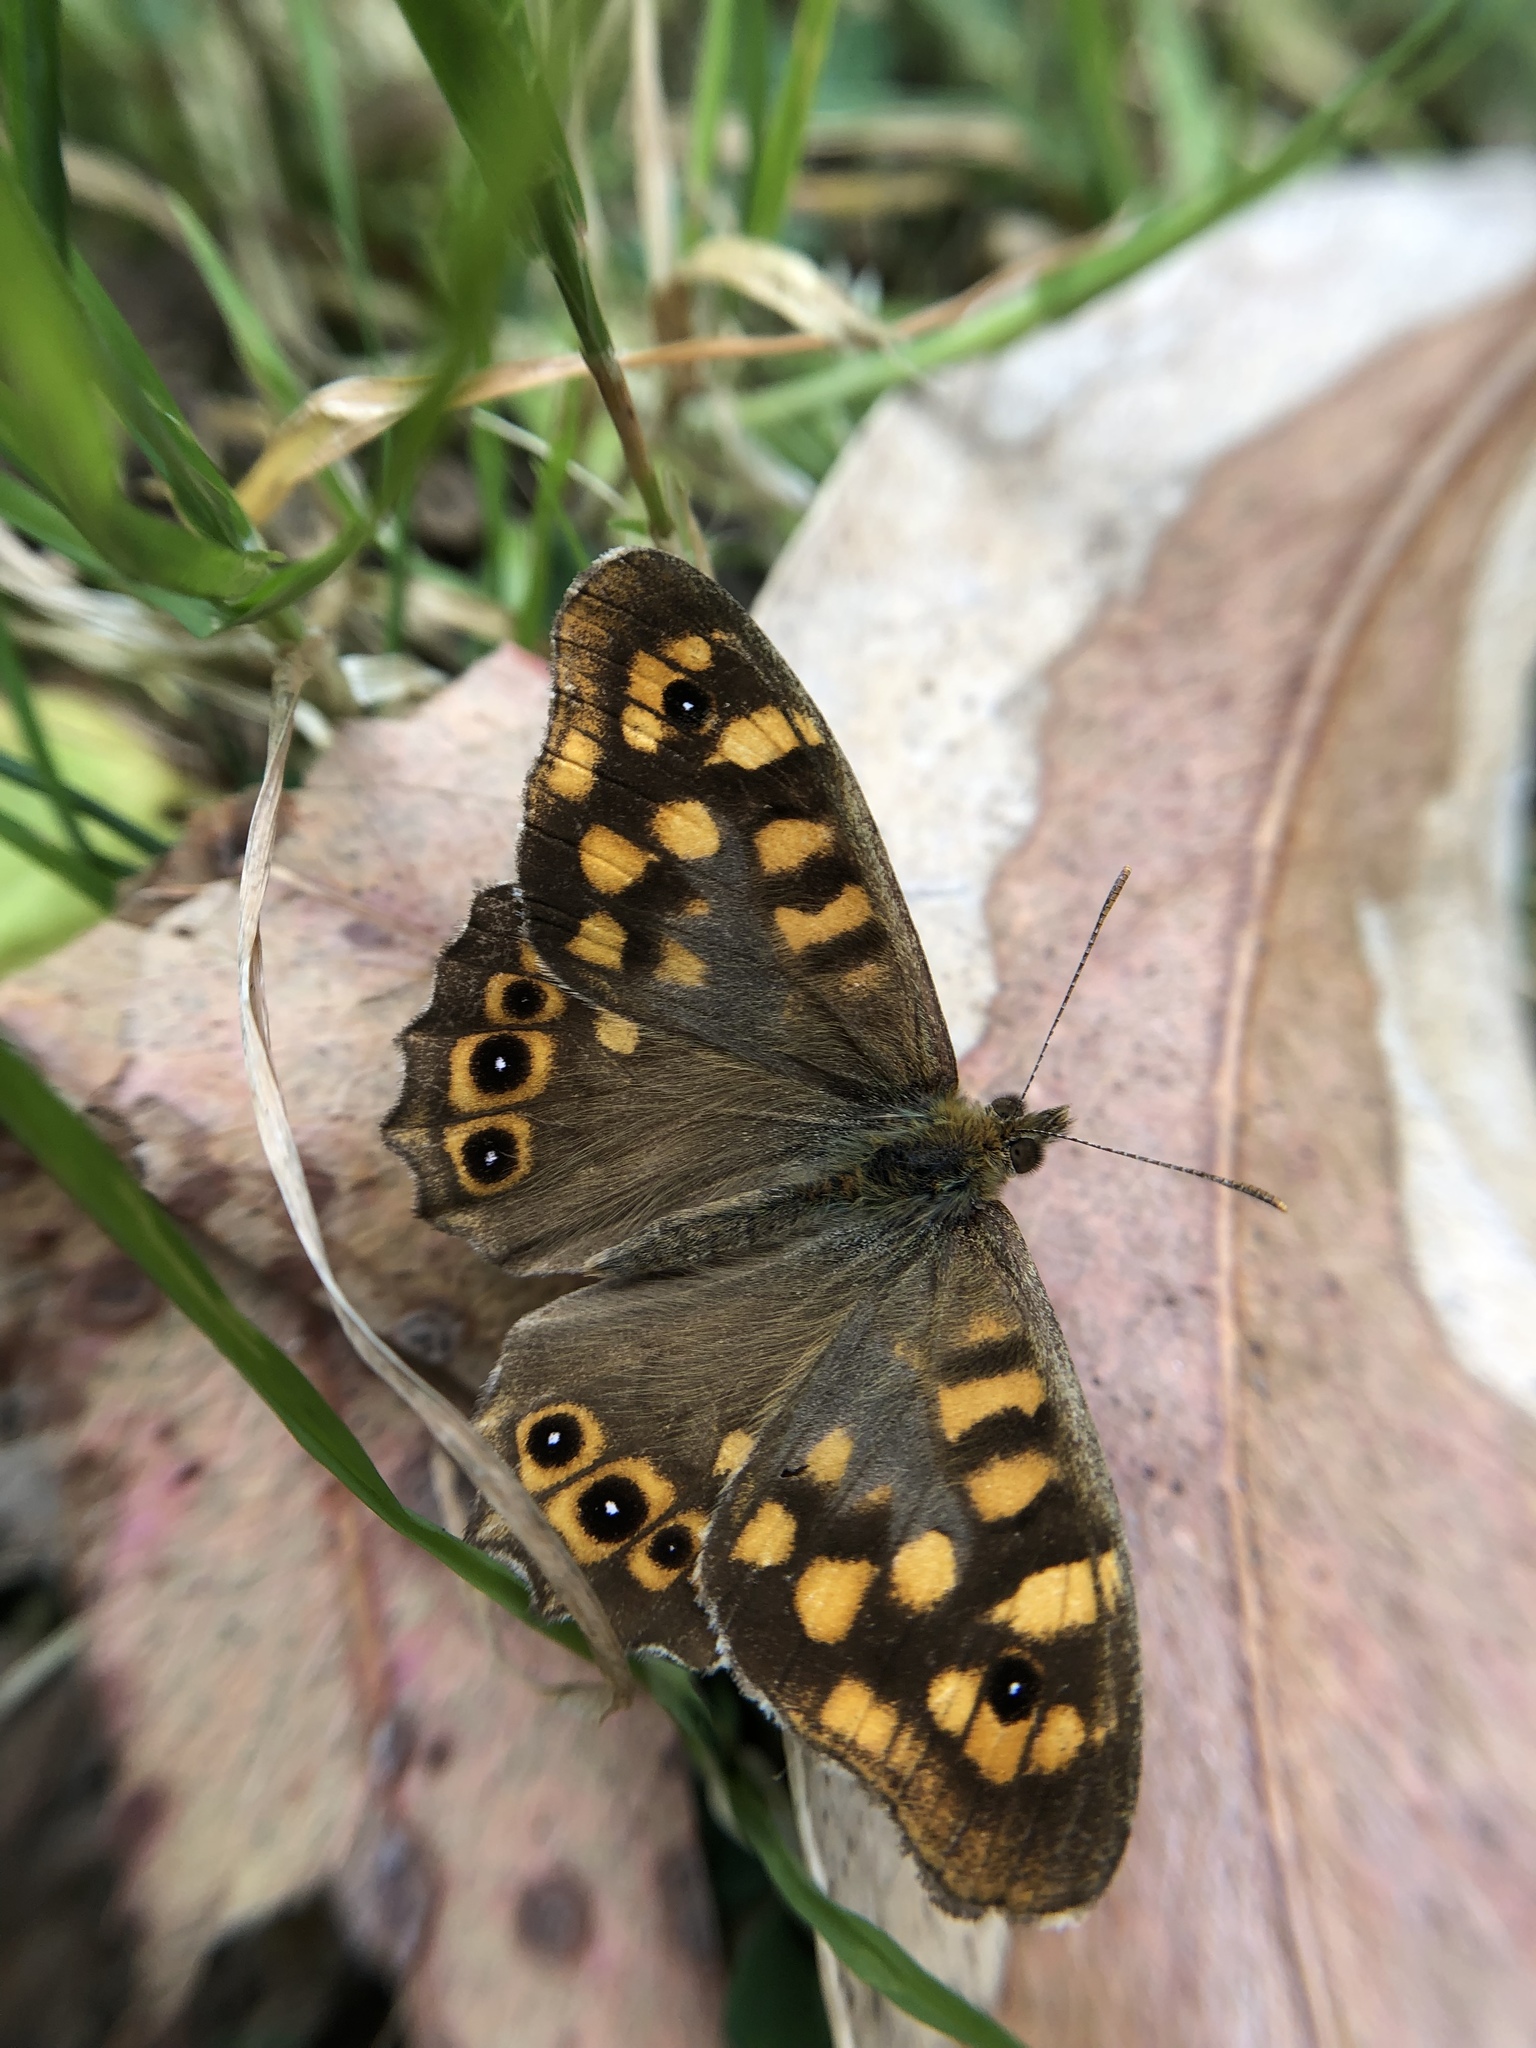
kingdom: Animalia
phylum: Arthropoda
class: Insecta
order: Lepidoptera
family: Nymphalidae
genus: Pararge
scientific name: Pararge aegeria
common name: Speckled wood
